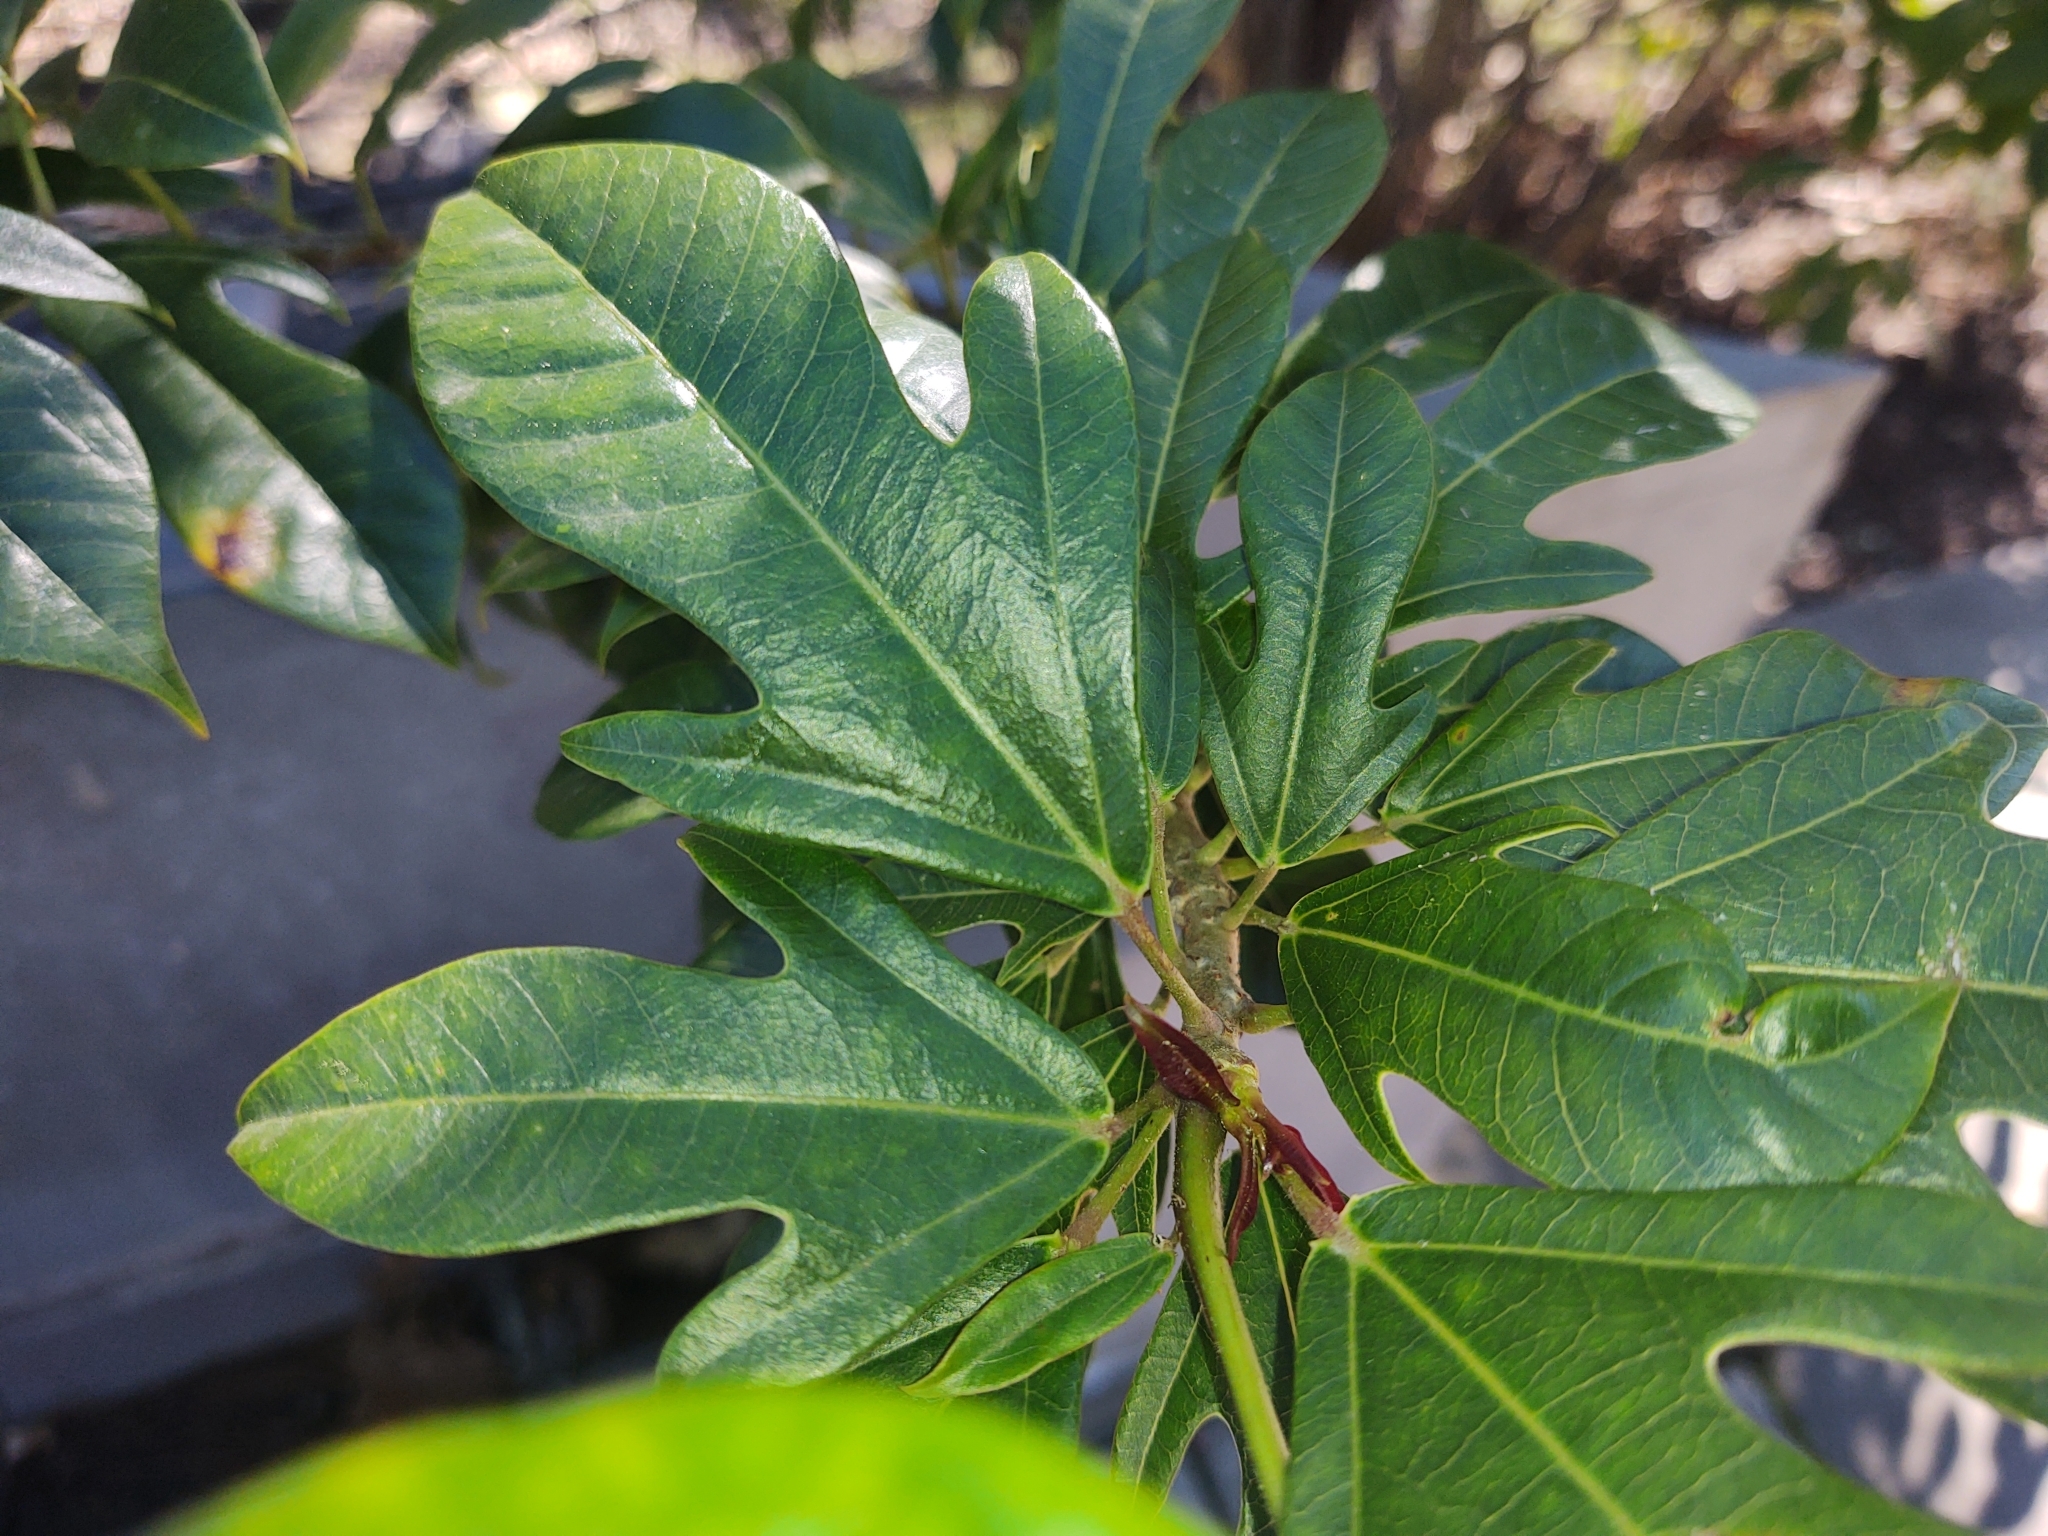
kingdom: Plantae
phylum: Tracheophyta
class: Magnoliopsida
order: Malpighiales
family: Euphorbiaceae
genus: Jatropha
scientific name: Jatropha integerrima
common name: Peregrina
